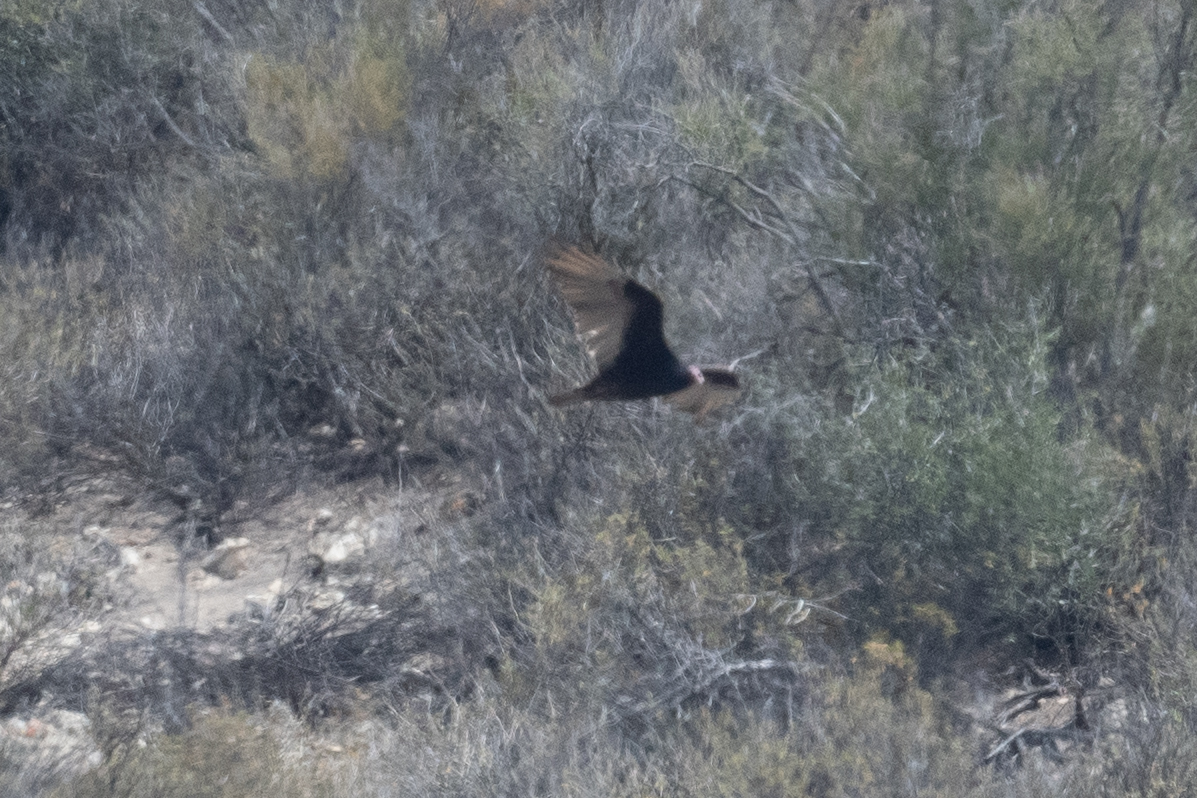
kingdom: Animalia
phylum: Chordata
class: Aves
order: Accipitriformes
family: Cathartidae
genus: Cathartes
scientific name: Cathartes aura
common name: Turkey vulture
